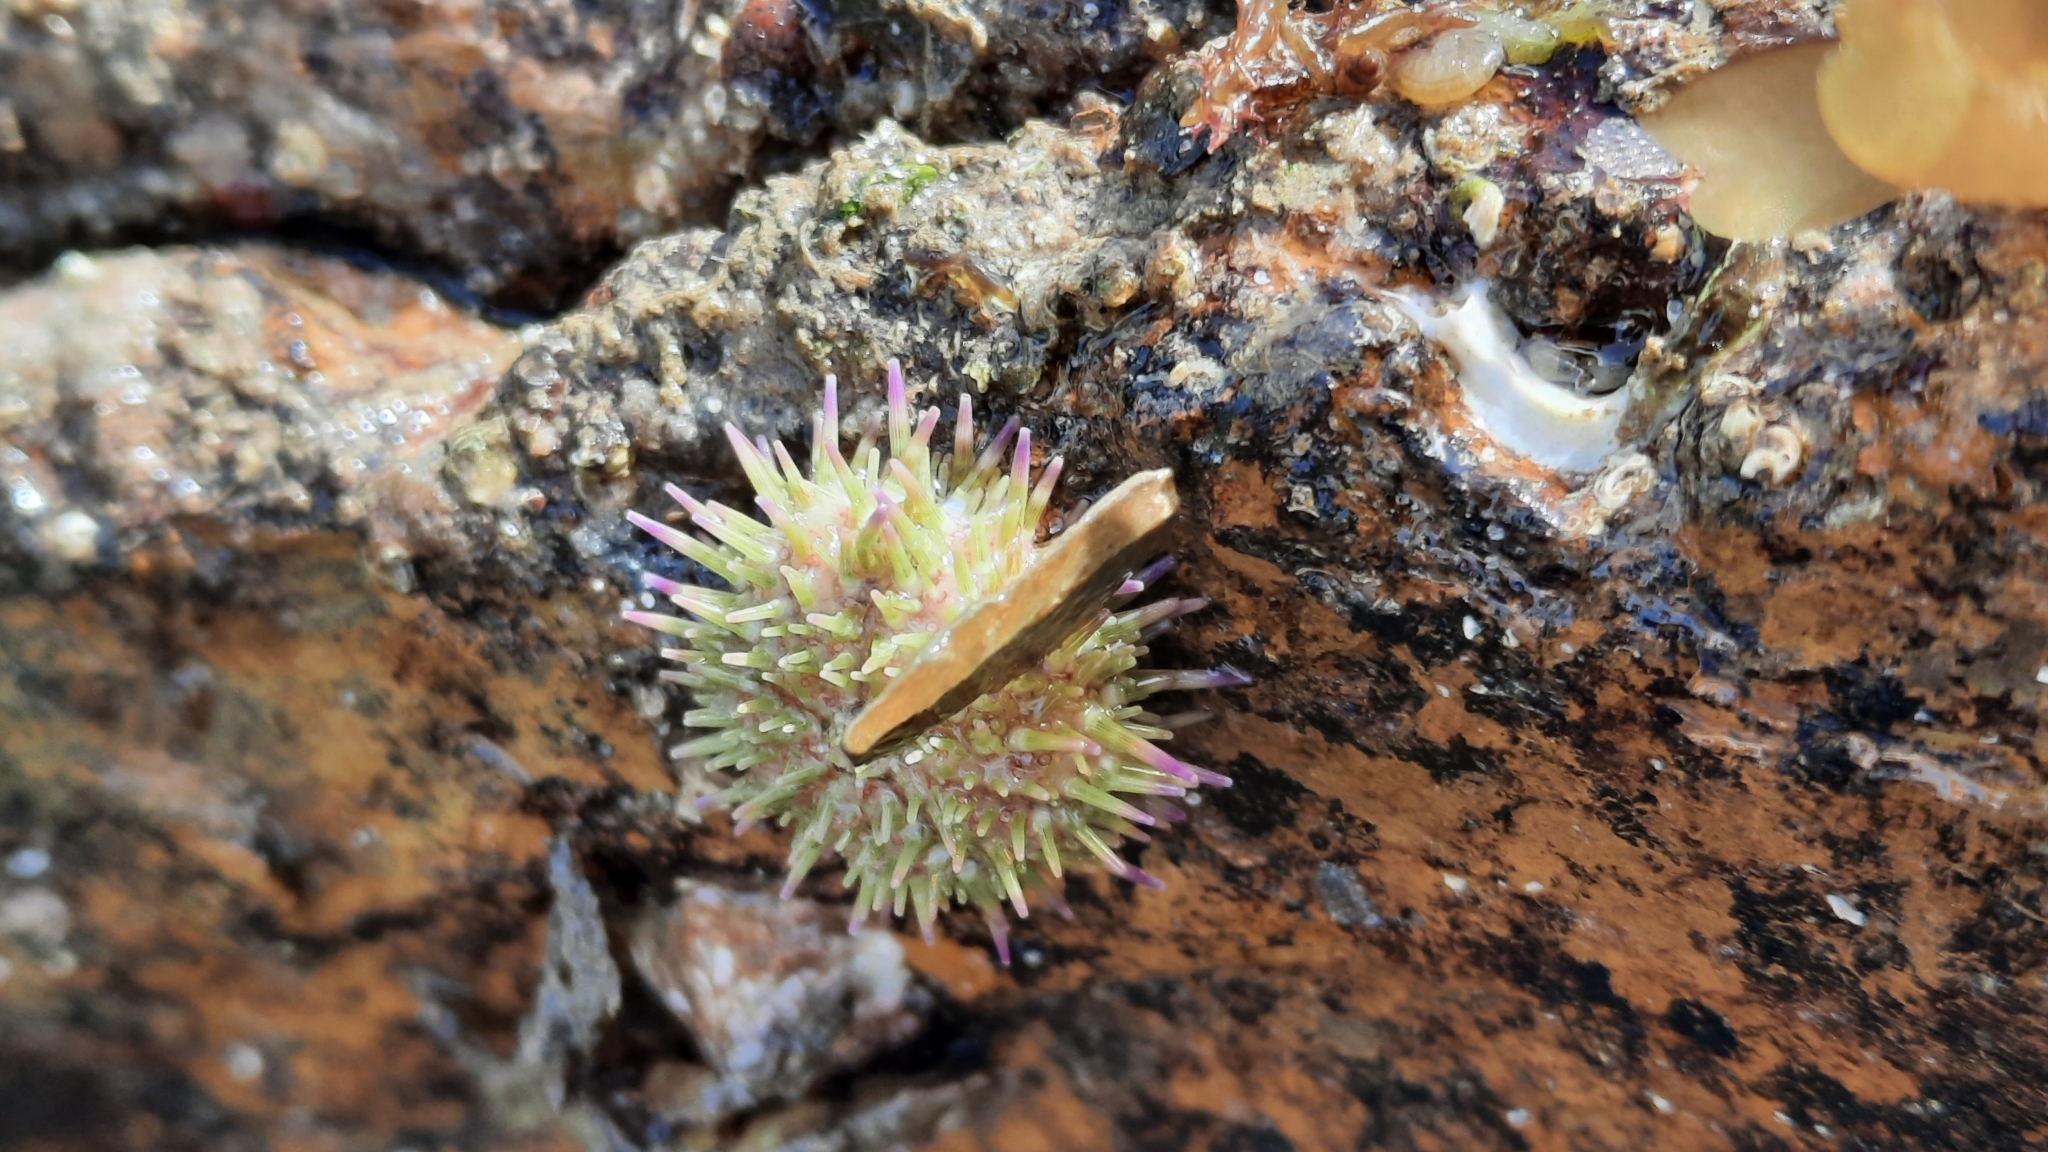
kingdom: Animalia
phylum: Echinodermata
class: Echinoidea
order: Camarodonta
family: Parechinidae
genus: Psammechinus
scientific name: Psammechinus miliaris
